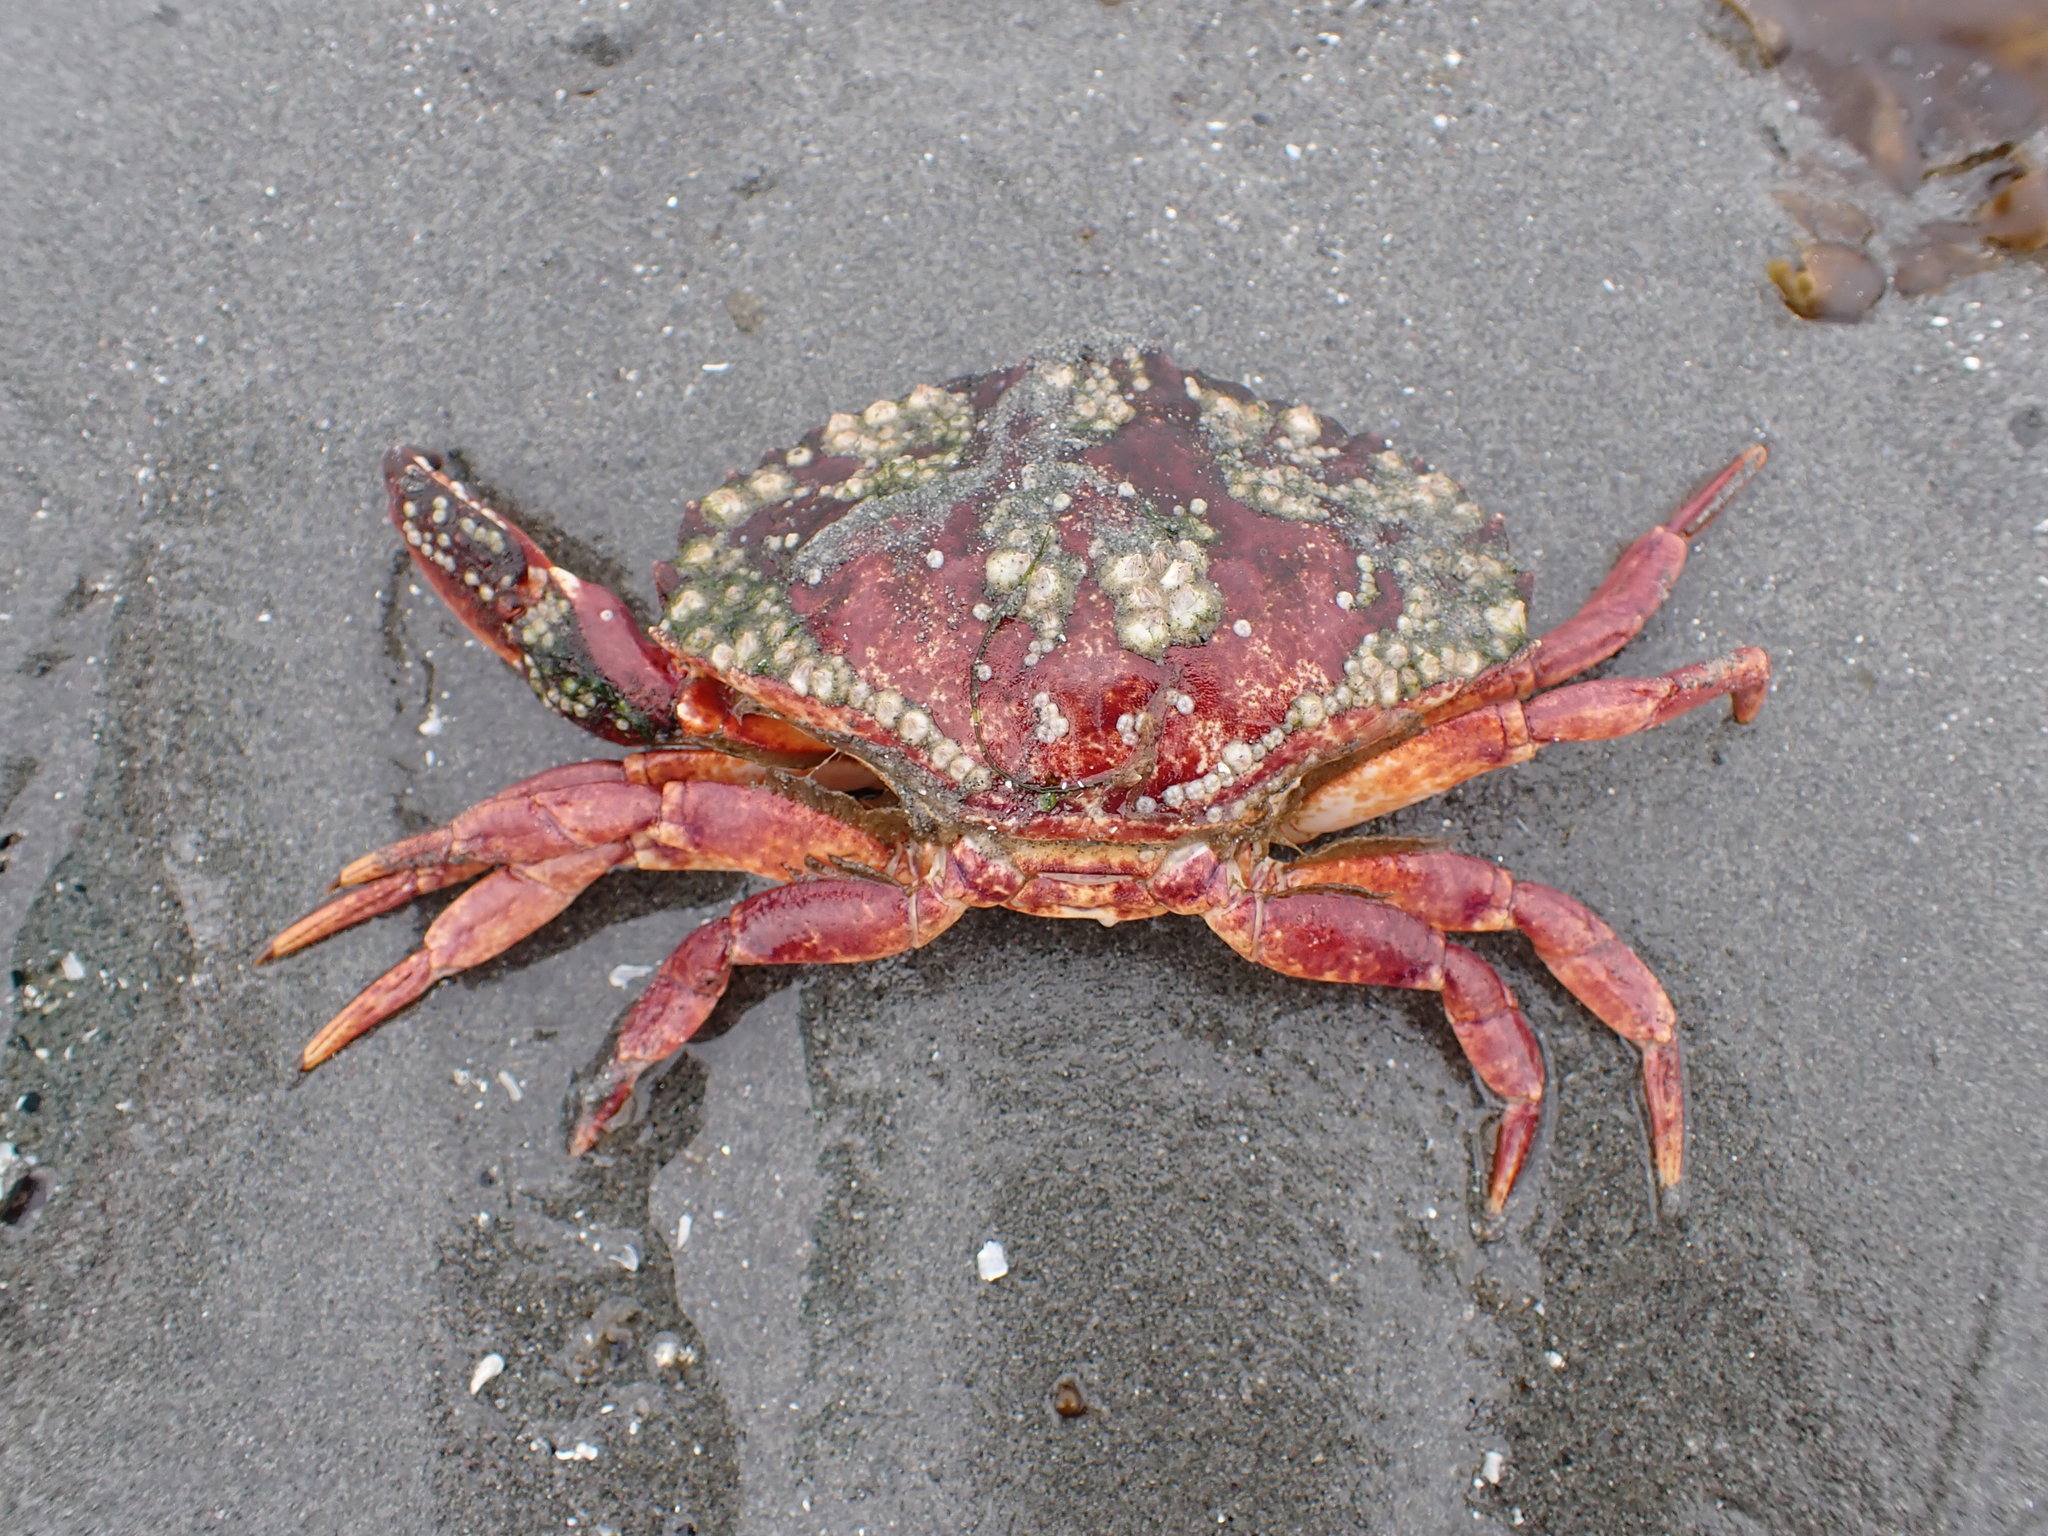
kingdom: Animalia
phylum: Arthropoda
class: Malacostraca
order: Decapoda
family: Cancridae
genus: Cancer
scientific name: Cancer productus
